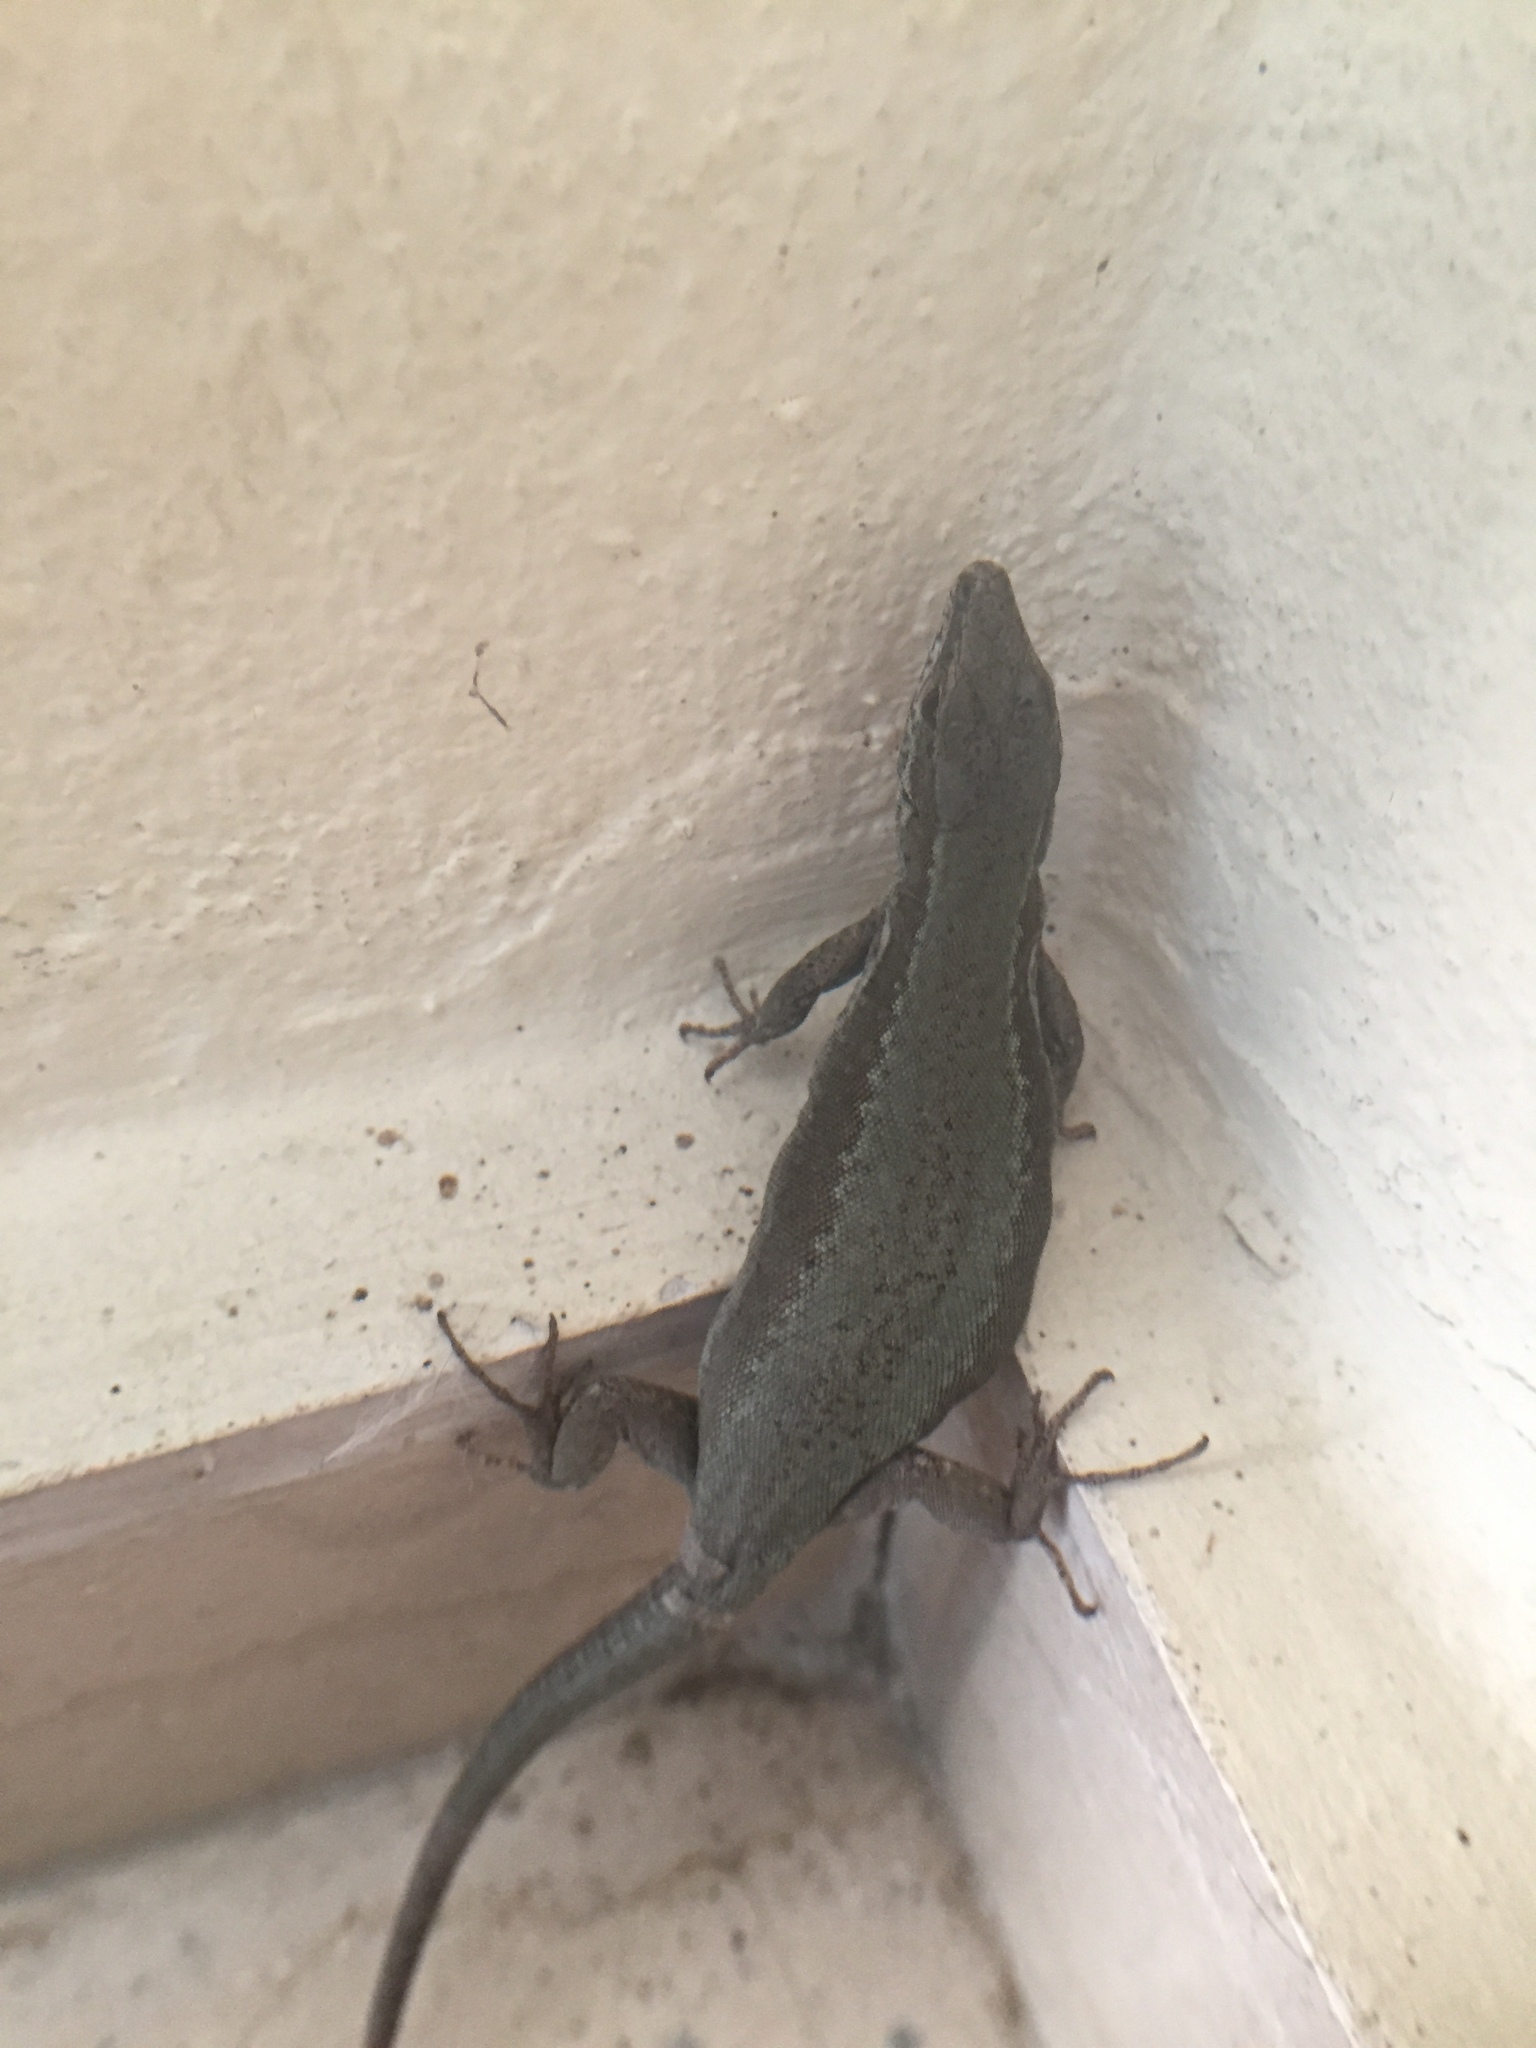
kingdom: Animalia
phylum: Chordata
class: Squamata
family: Lacertidae
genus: Podarcis
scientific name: Podarcis muralis
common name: Common wall lizard
